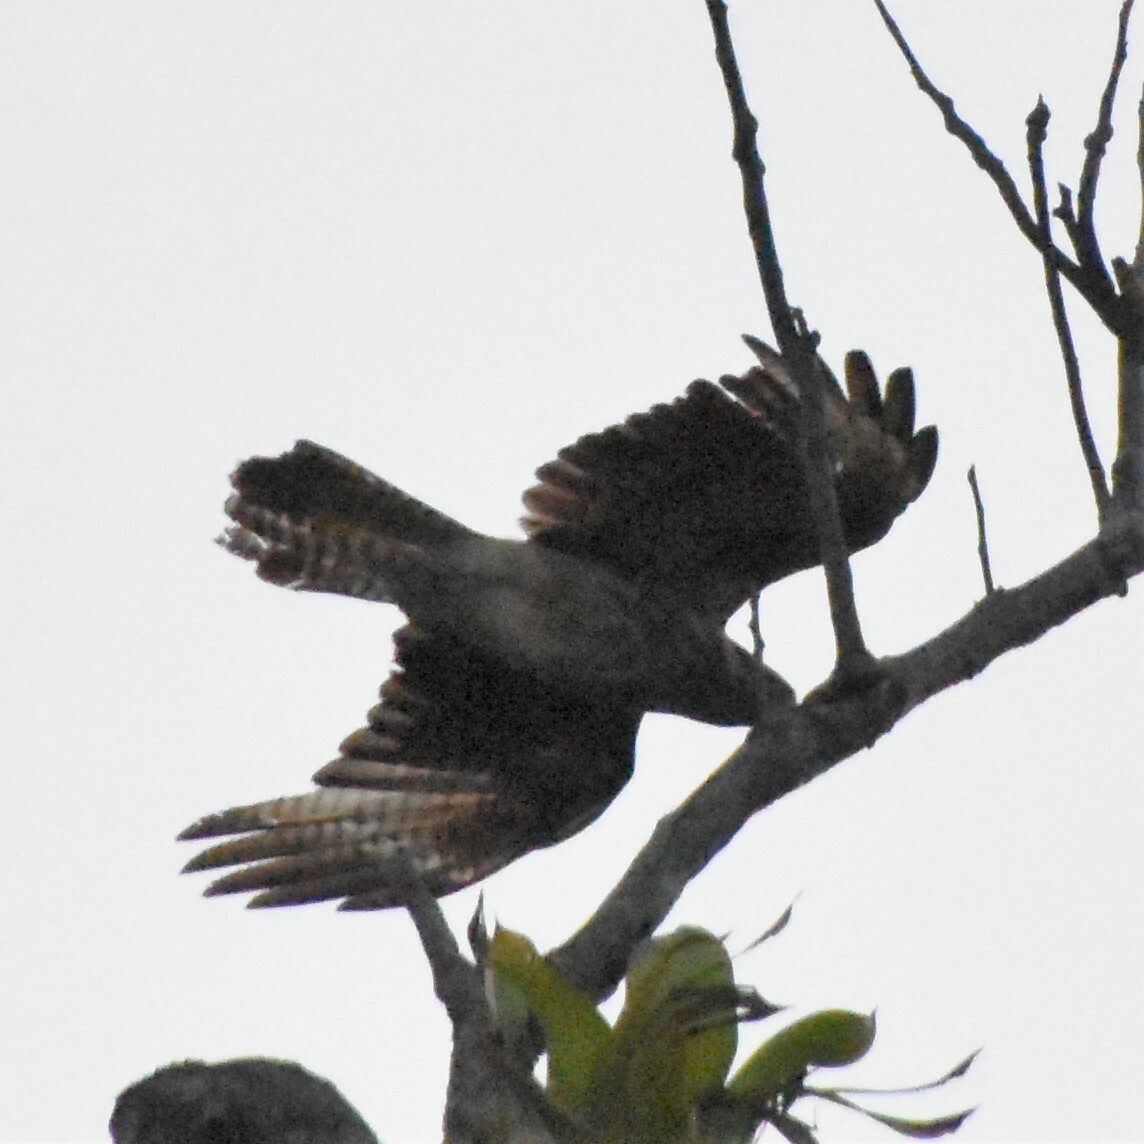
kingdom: Animalia
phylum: Chordata
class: Aves
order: Falconiformes
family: Falconidae
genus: Daptrius
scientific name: Daptrius
